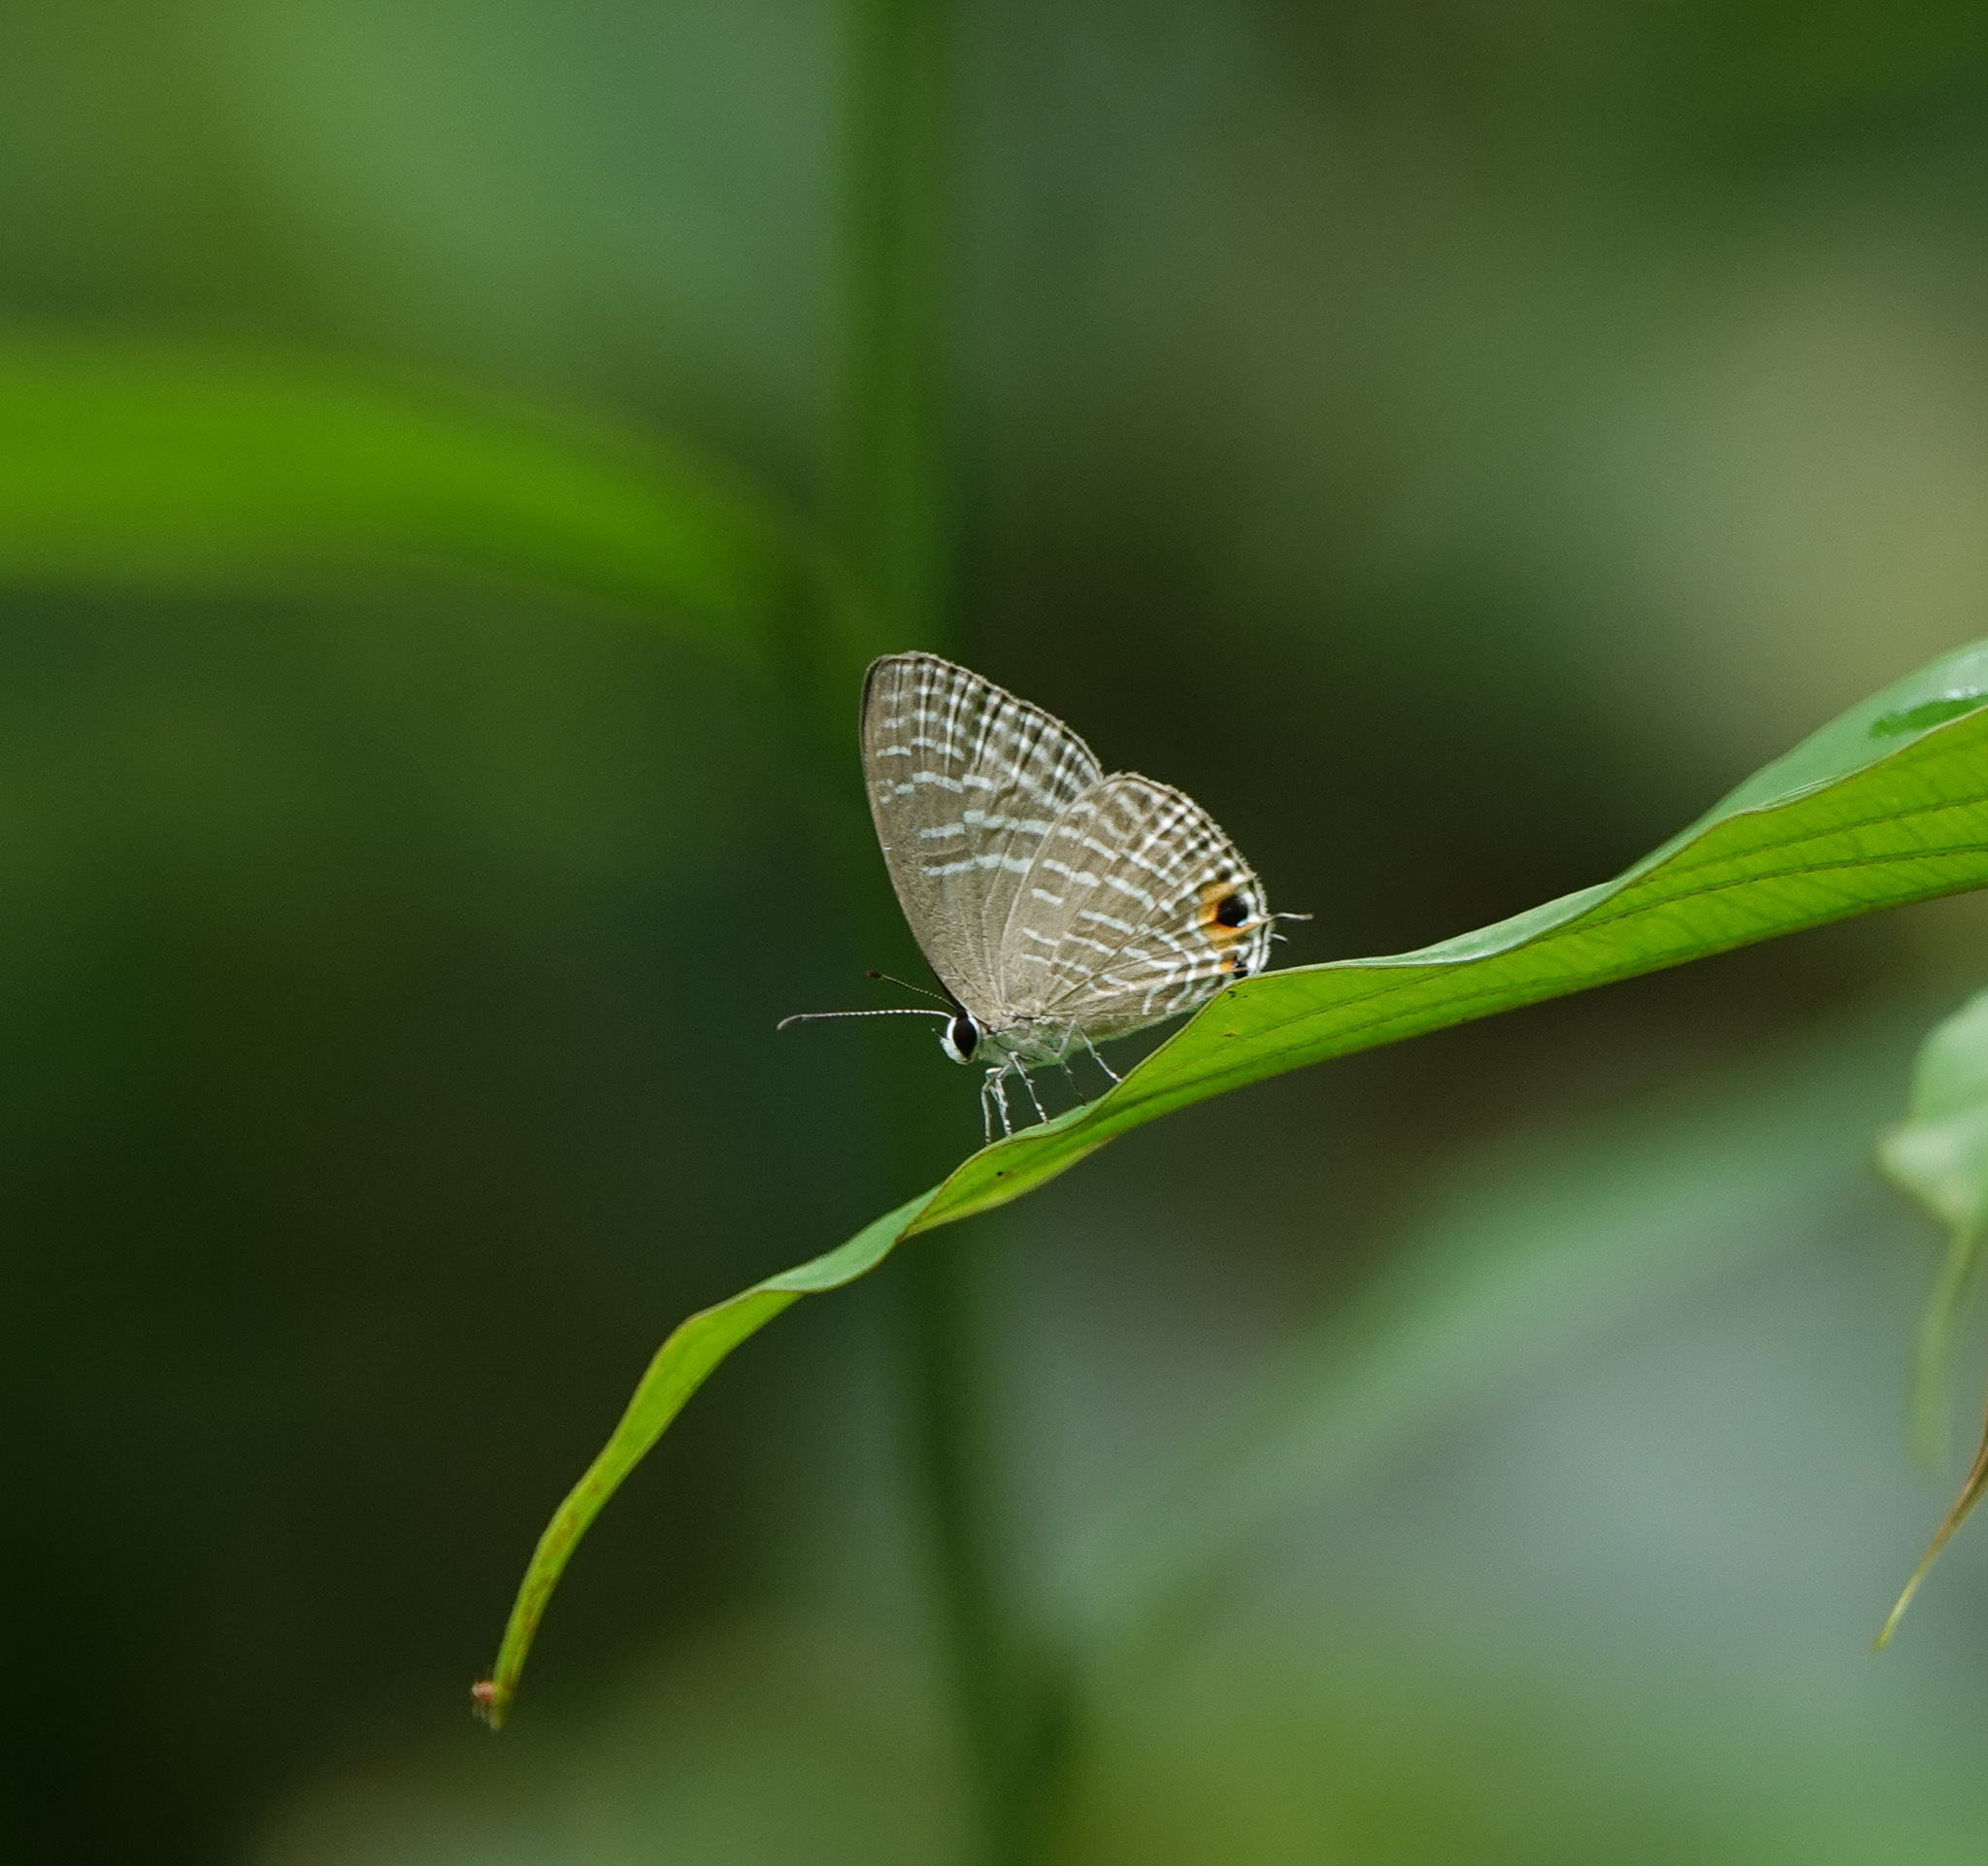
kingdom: Animalia
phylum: Arthropoda
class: Insecta
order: Lepidoptera
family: Lycaenidae
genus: Jamides
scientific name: Jamides celeno
